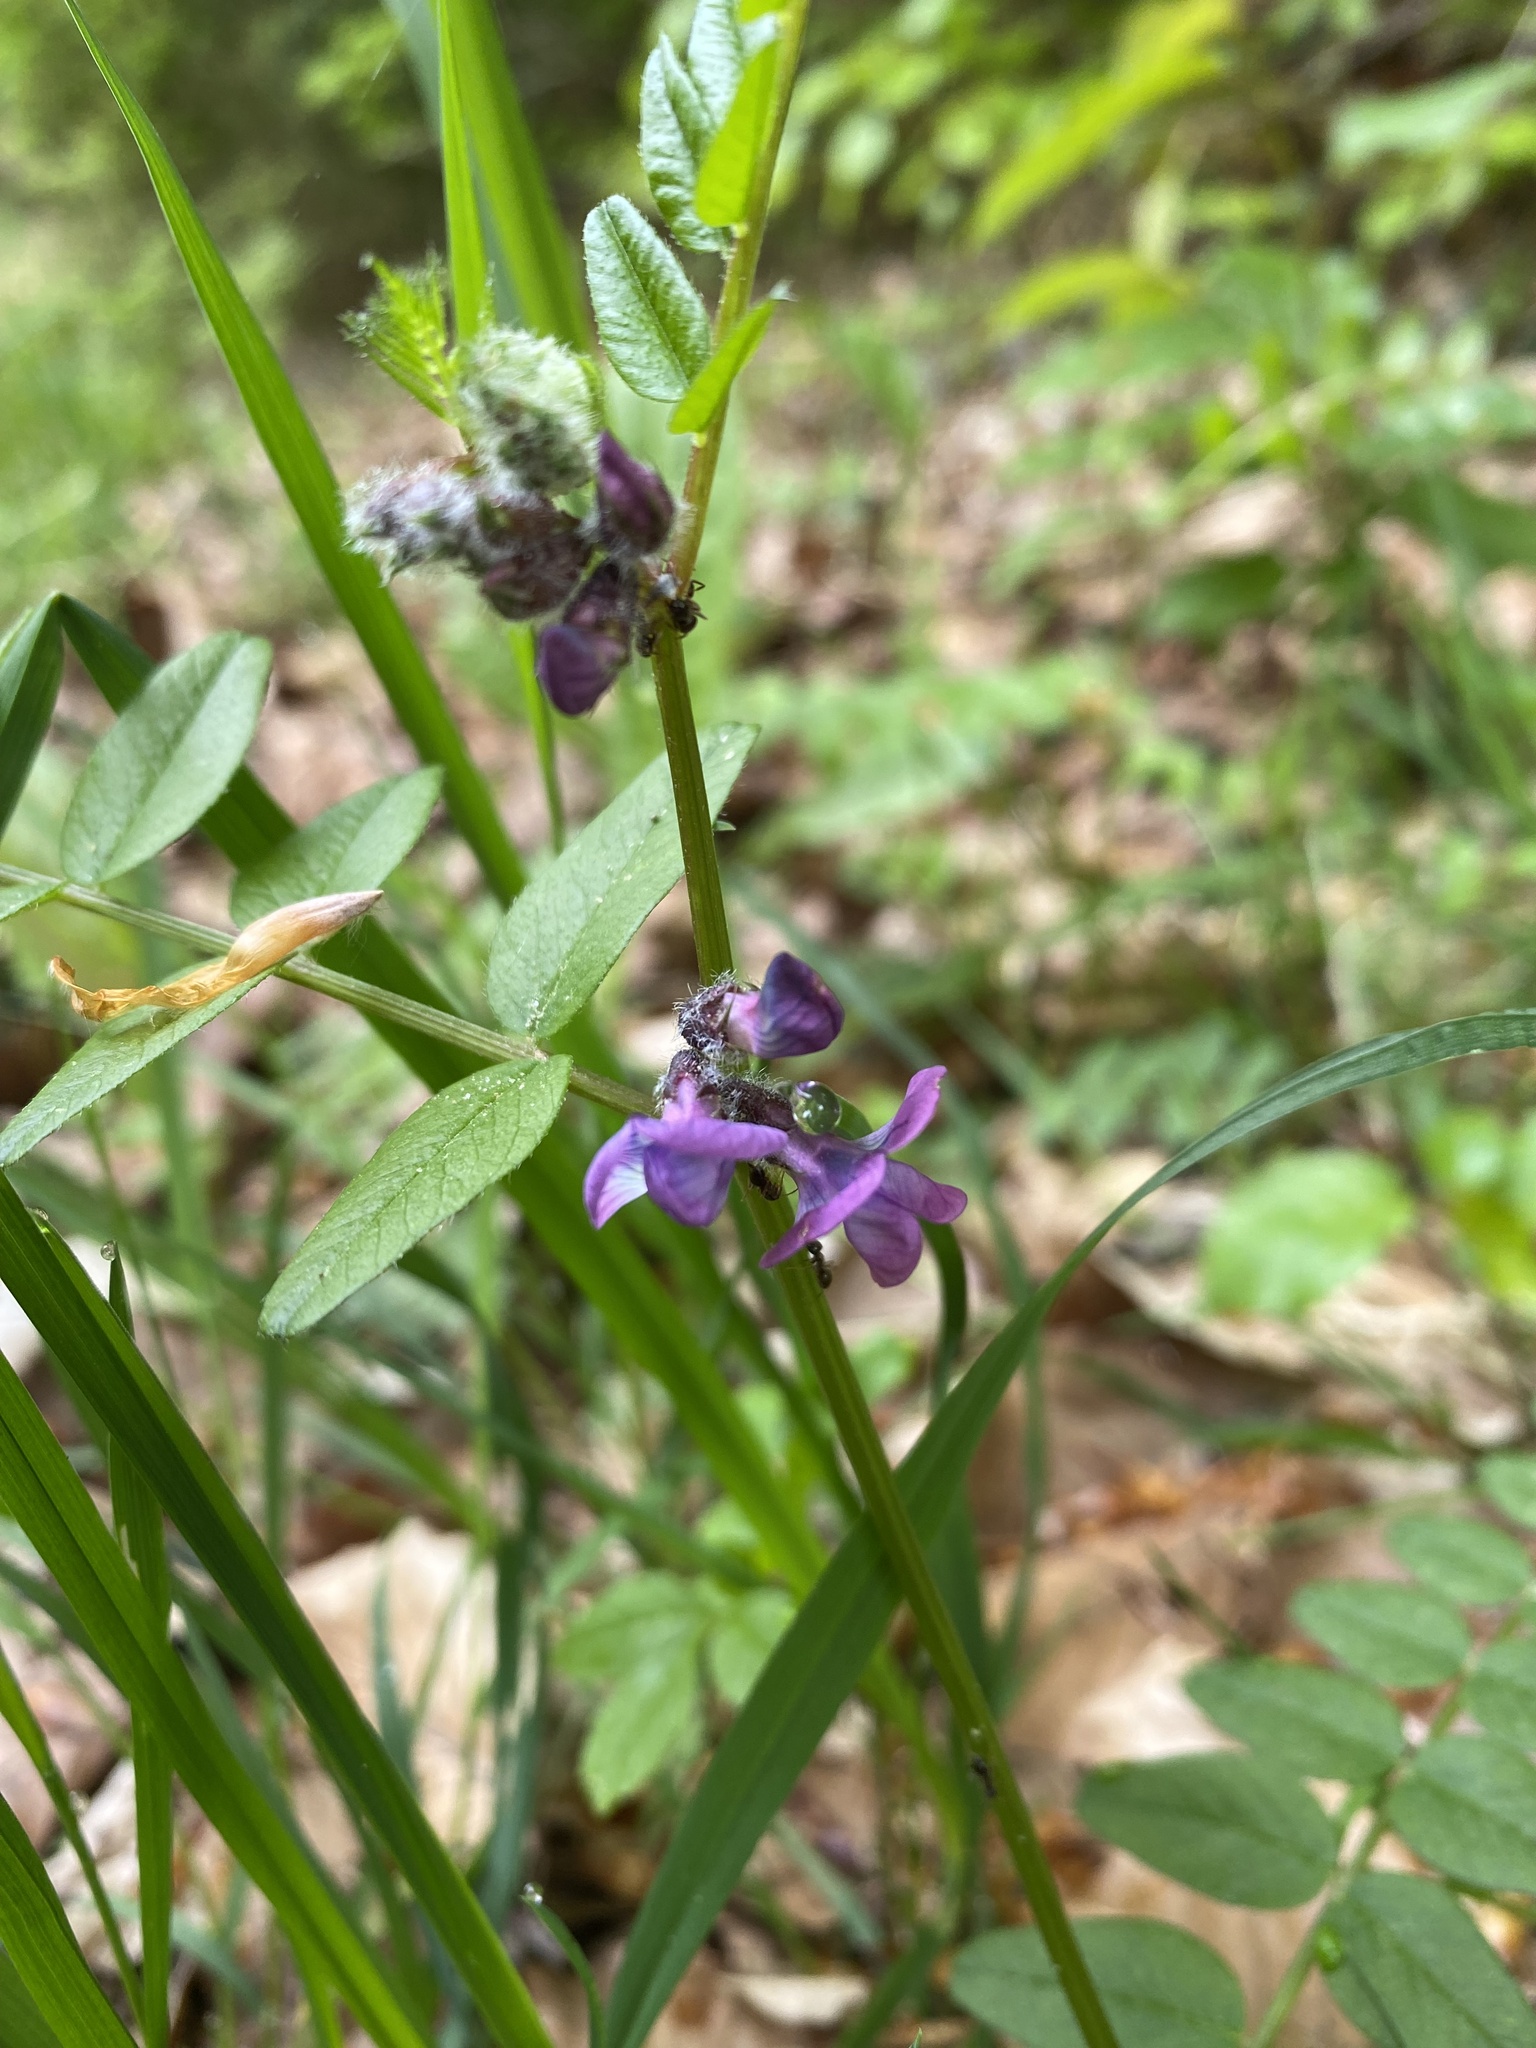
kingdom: Plantae
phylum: Tracheophyta
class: Magnoliopsida
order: Fabales
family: Fabaceae
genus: Vicia
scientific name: Vicia sepium
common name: Bush vetch
